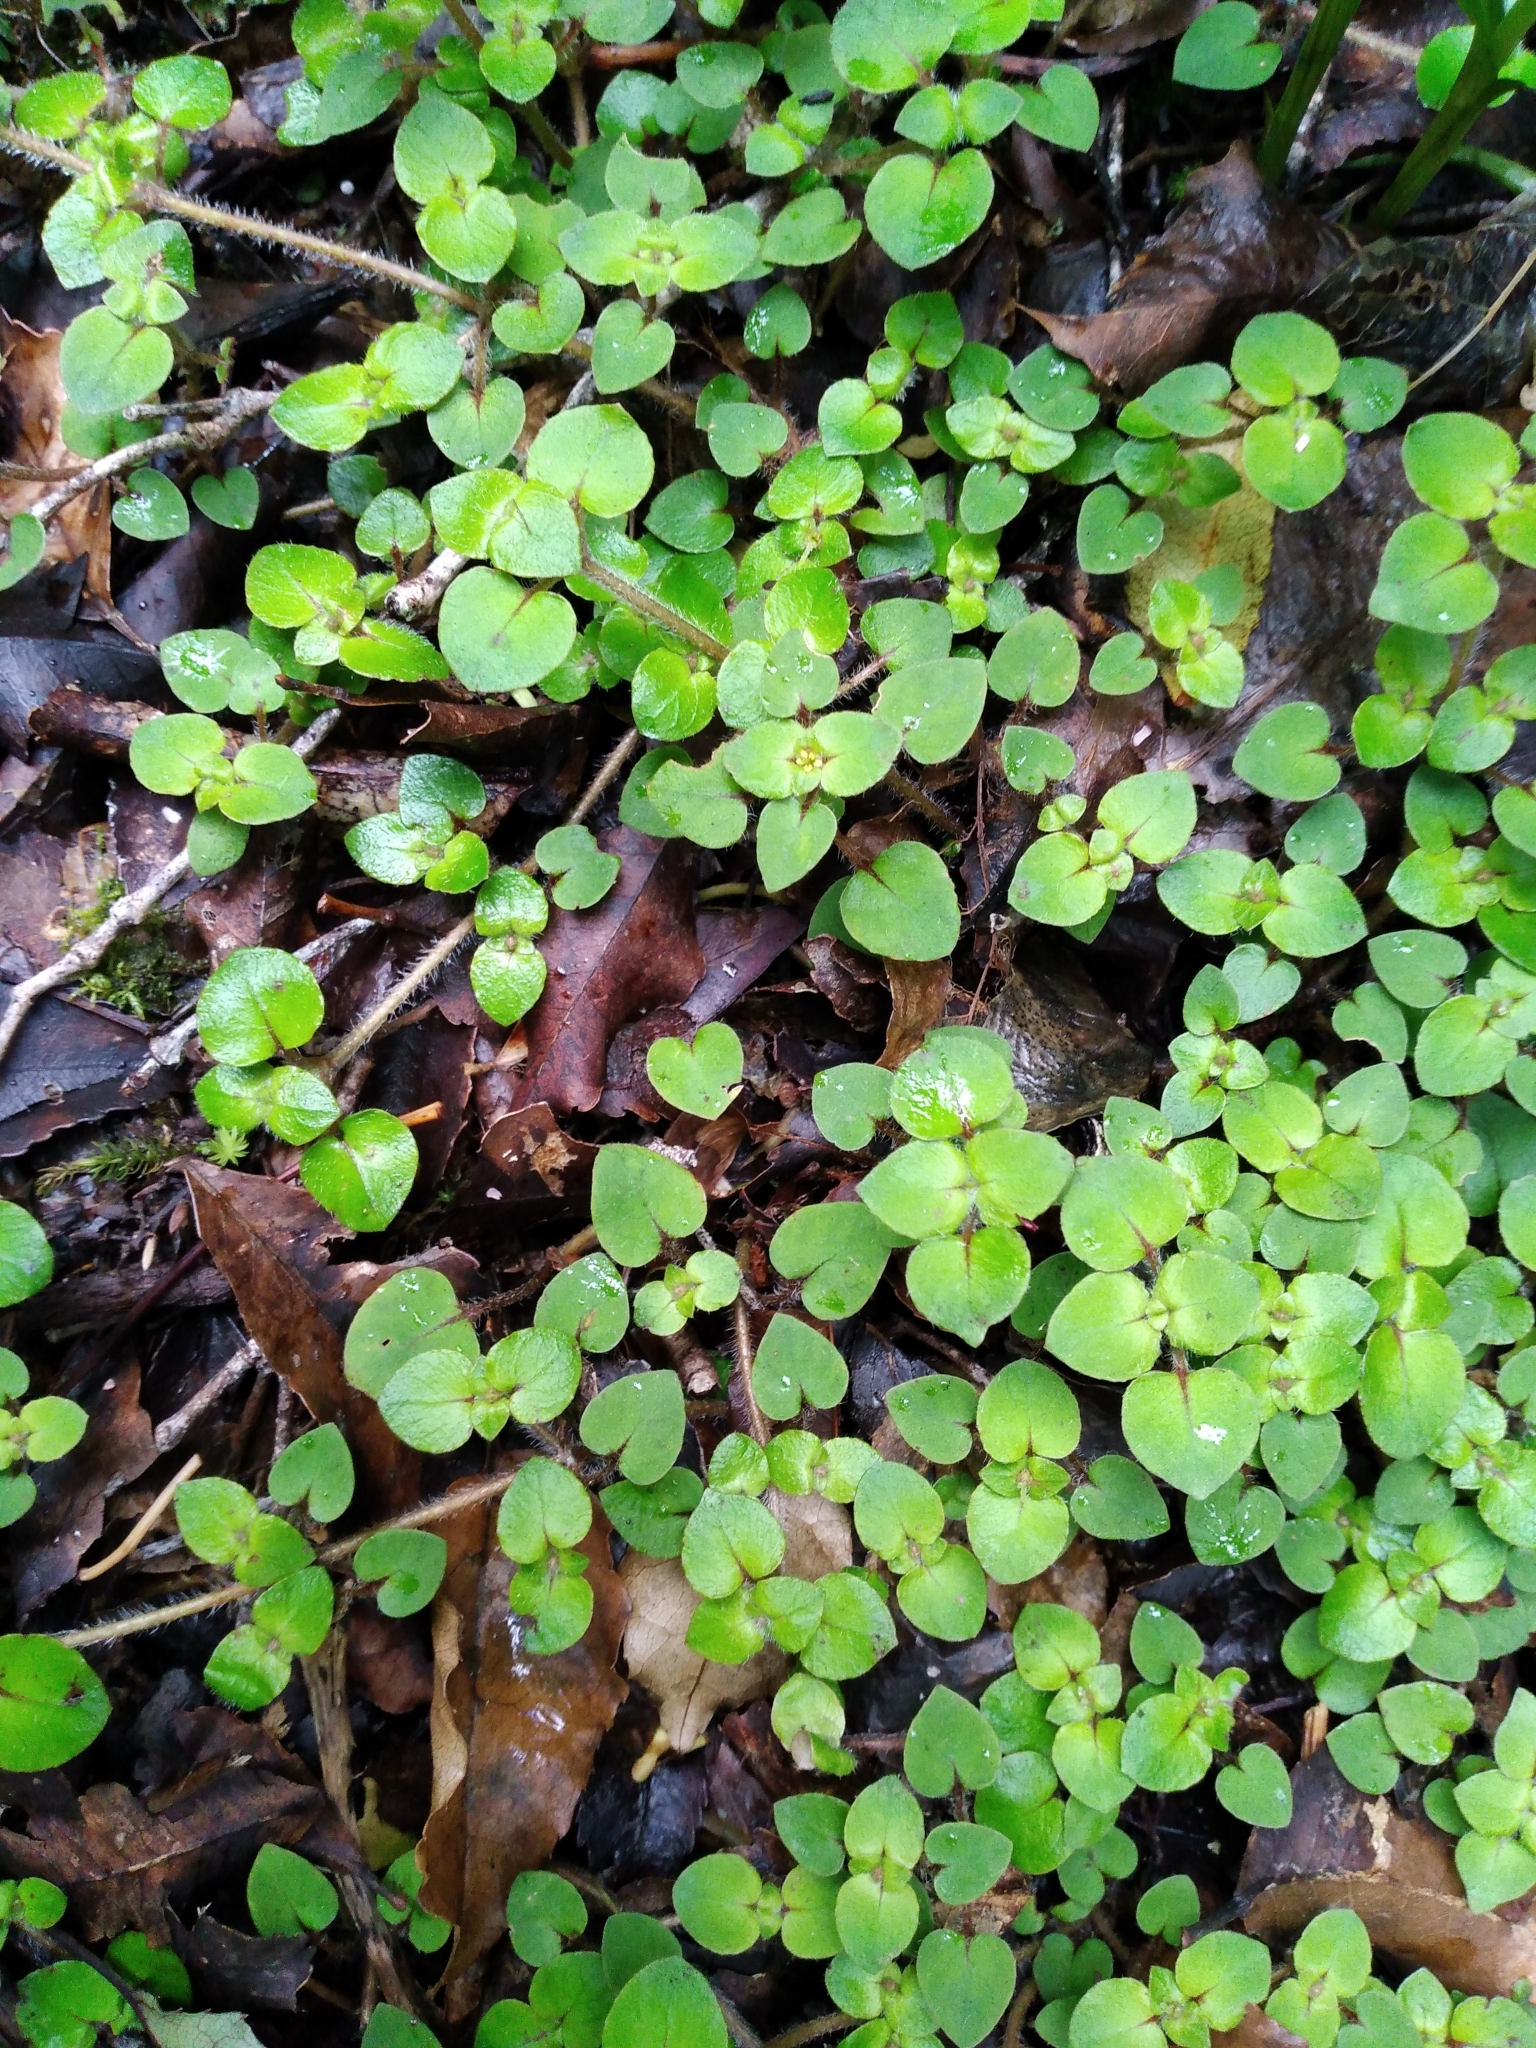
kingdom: Plantae
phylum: Tracheophyta
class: Magnoliopsida
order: Gentianales
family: Rubiaceae
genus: Nertera
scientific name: Nertera villosa
